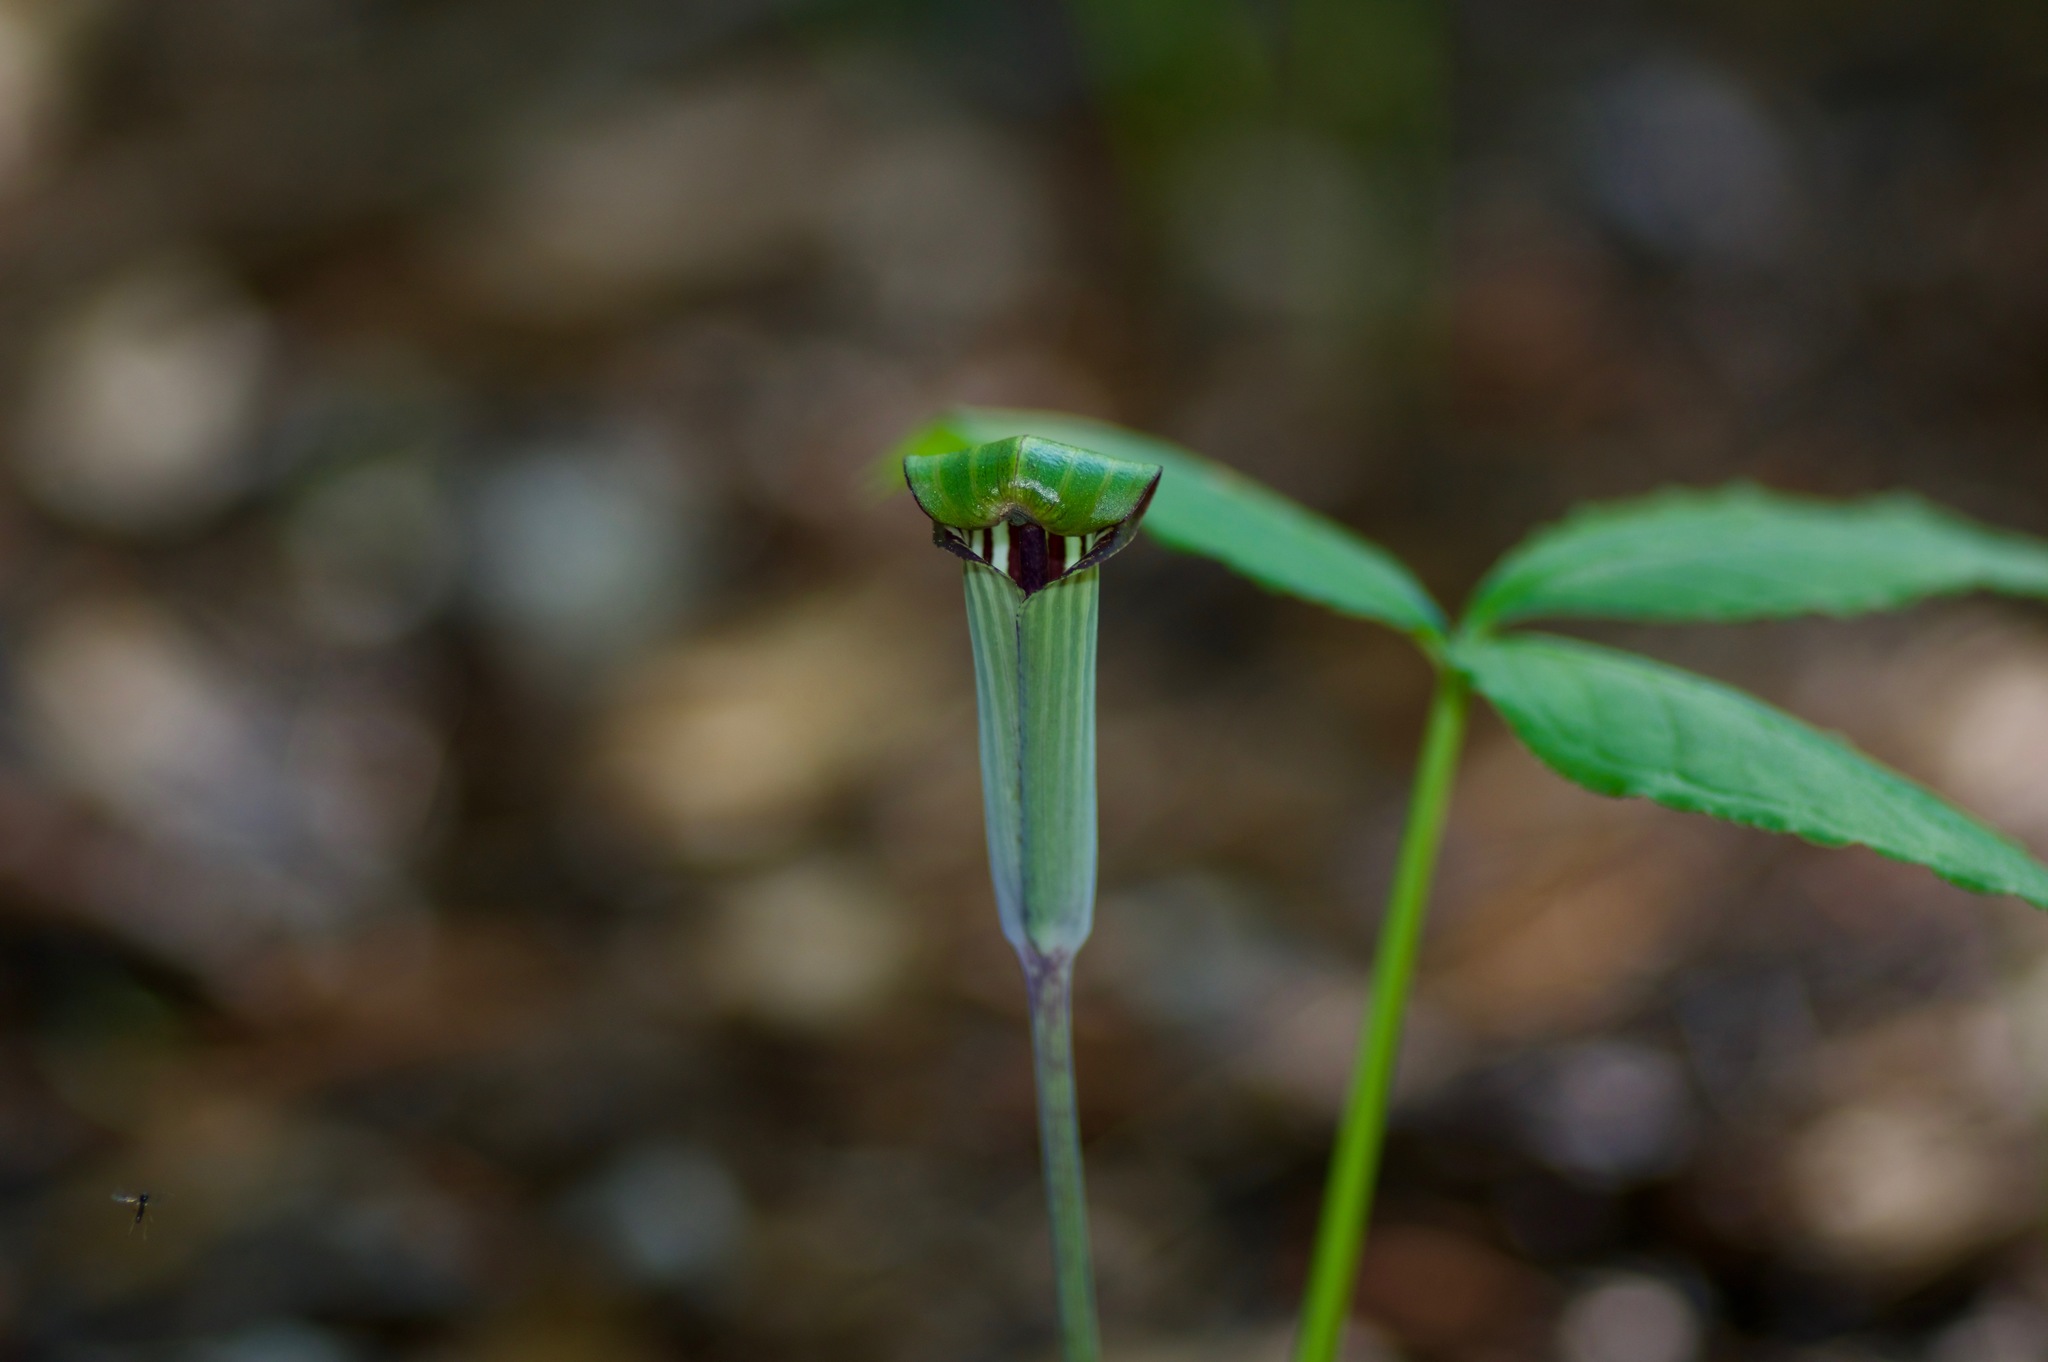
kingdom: Plantae
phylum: Tracheophyta
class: Liliopsida
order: Alismatales
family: Araceae
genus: Arisaema
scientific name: Arisaema triphyllum
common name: Jack-in-the-pulpit
